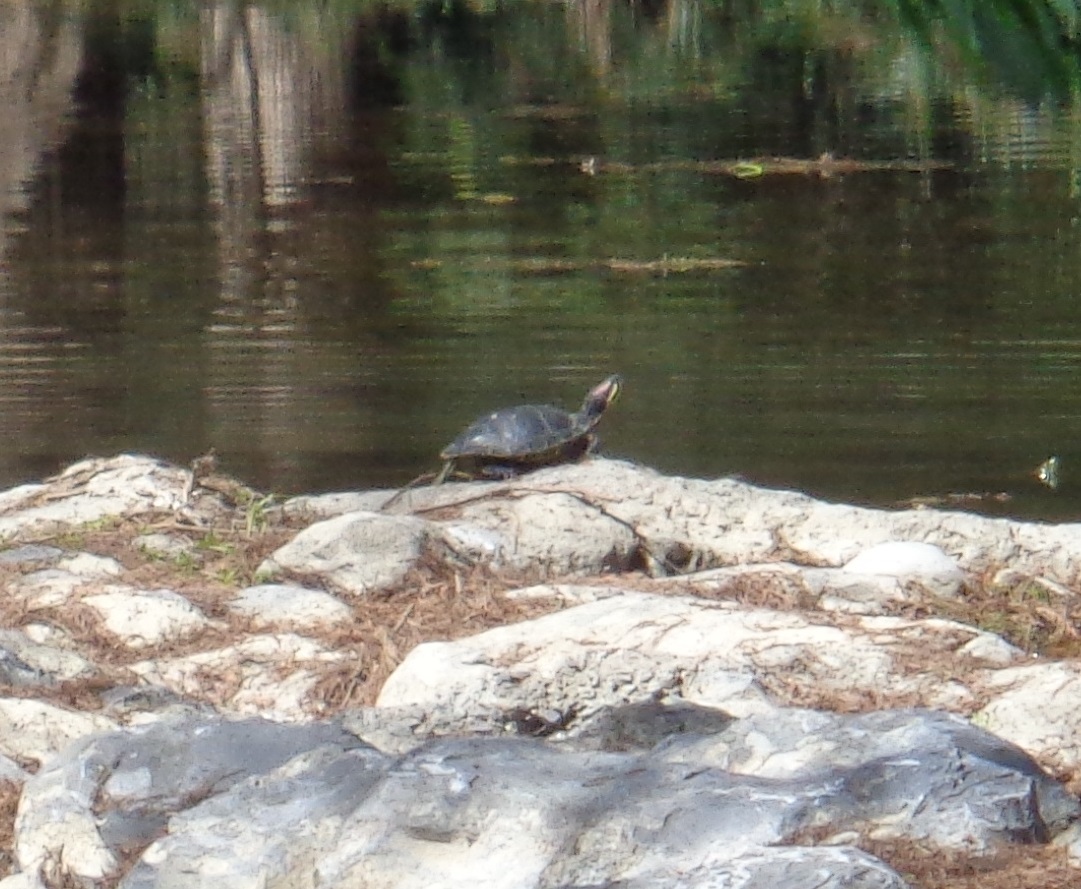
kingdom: Animalia
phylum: Chordata
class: Testudines
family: Emydidae
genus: Trachemys
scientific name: Trachemys scripta
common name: Slider
